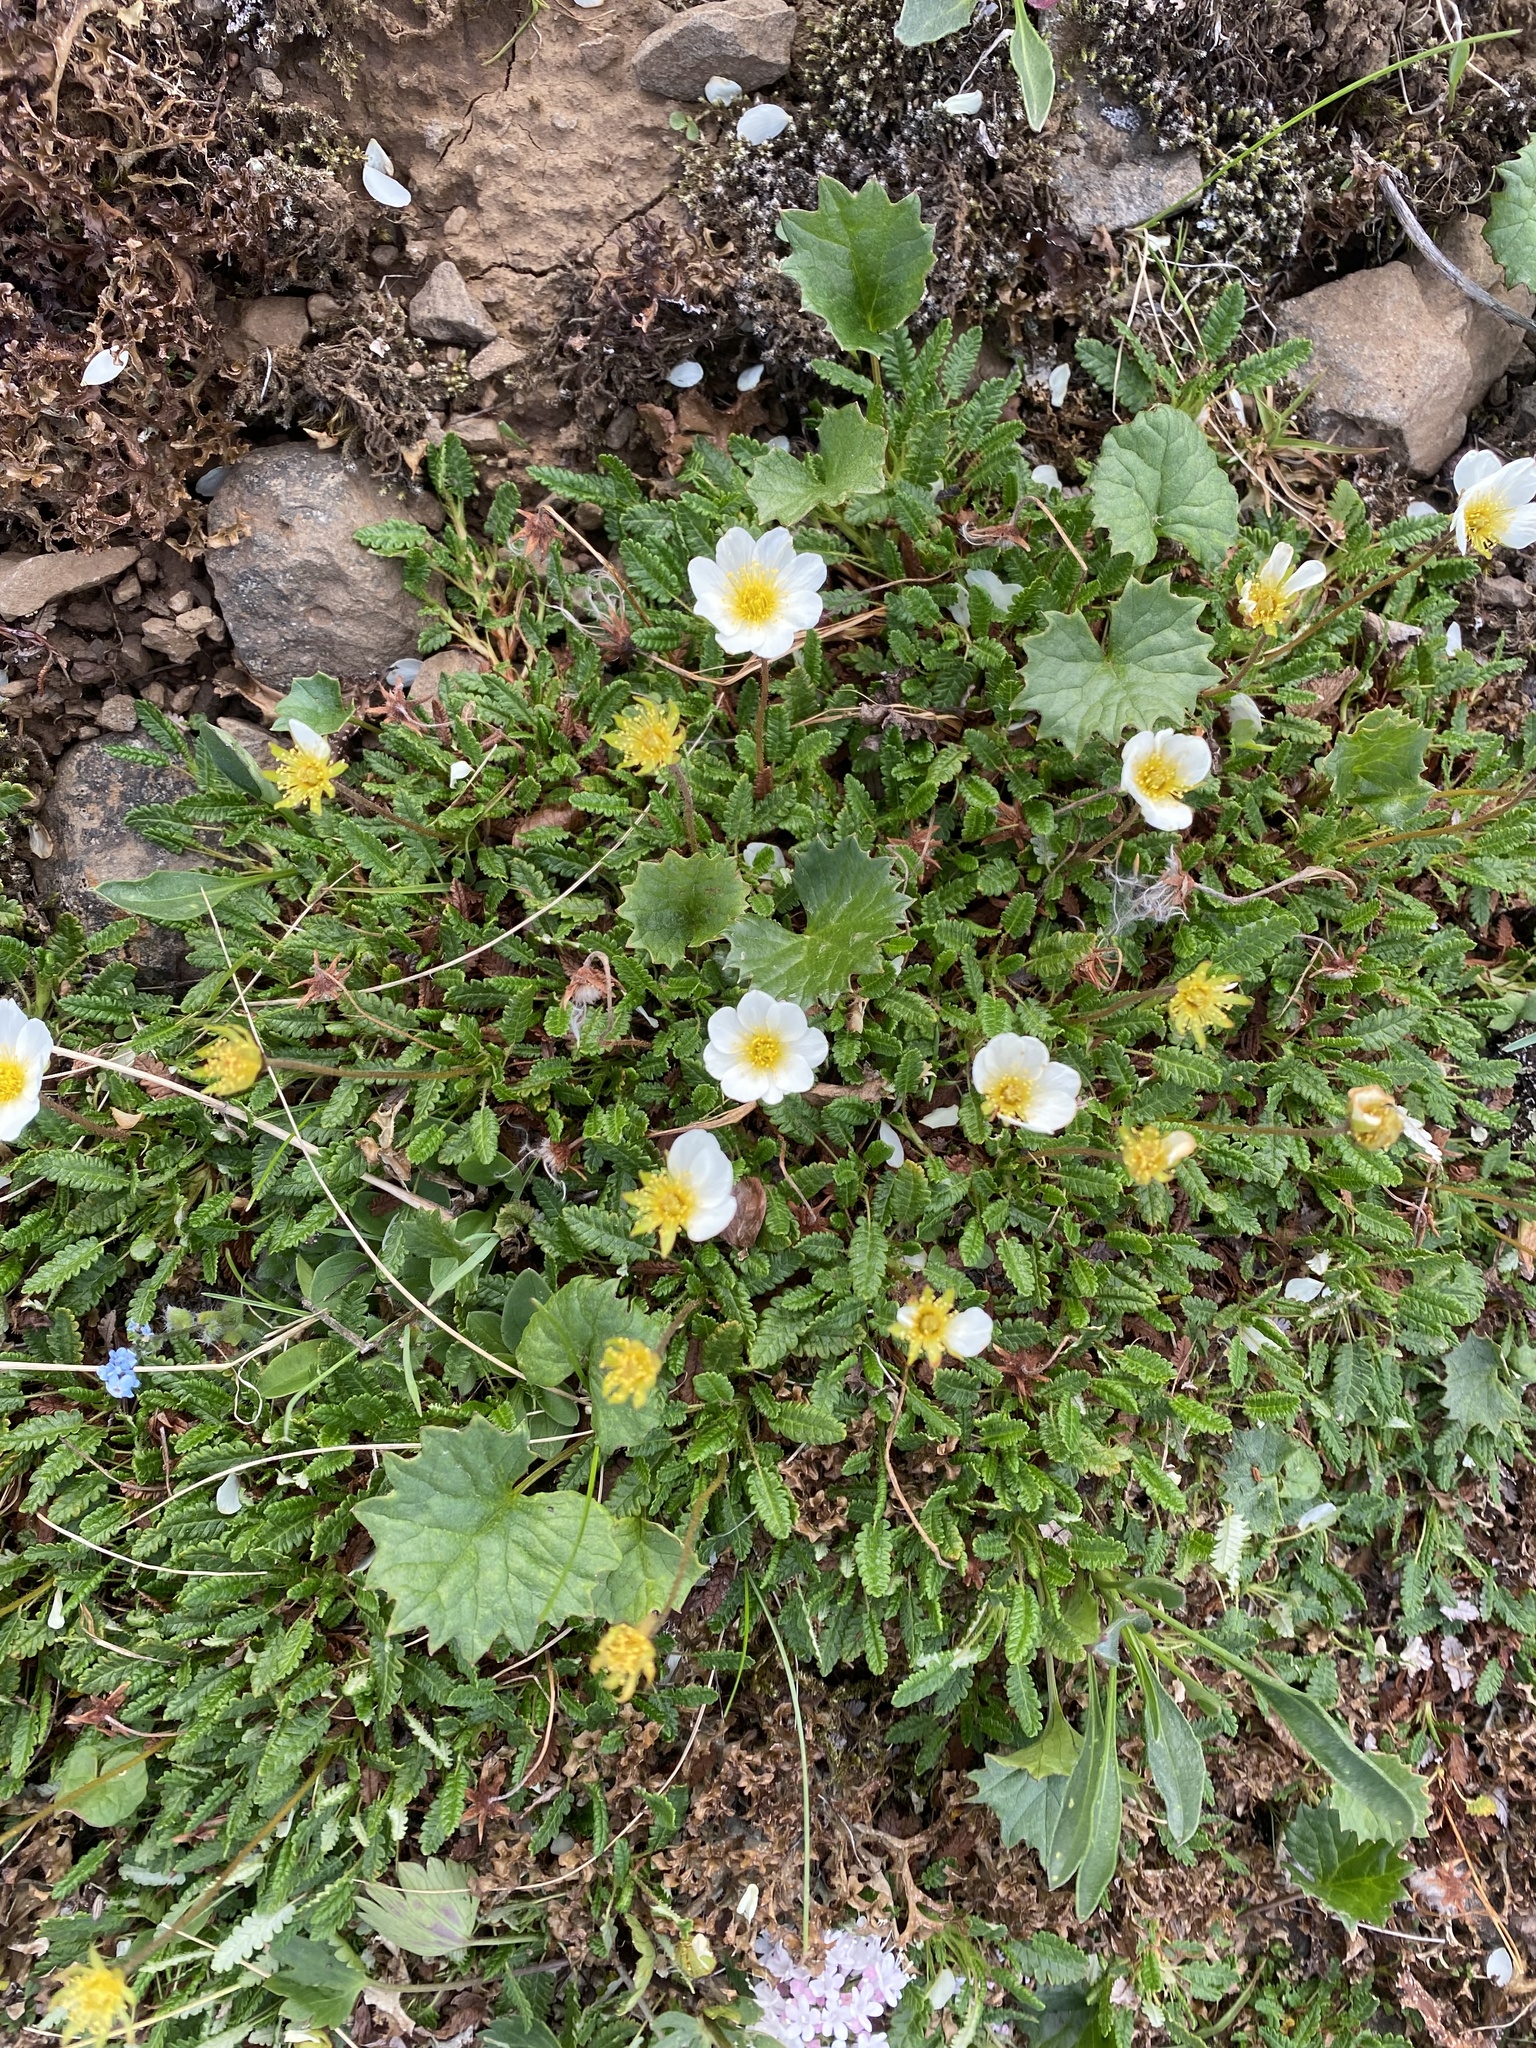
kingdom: Plantae
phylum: Tracheophyta
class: Magnoliopsida
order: Rosales
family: Rosaceae
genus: Dryas
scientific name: Dryas octopetala
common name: Eight-petal mountain-avens
